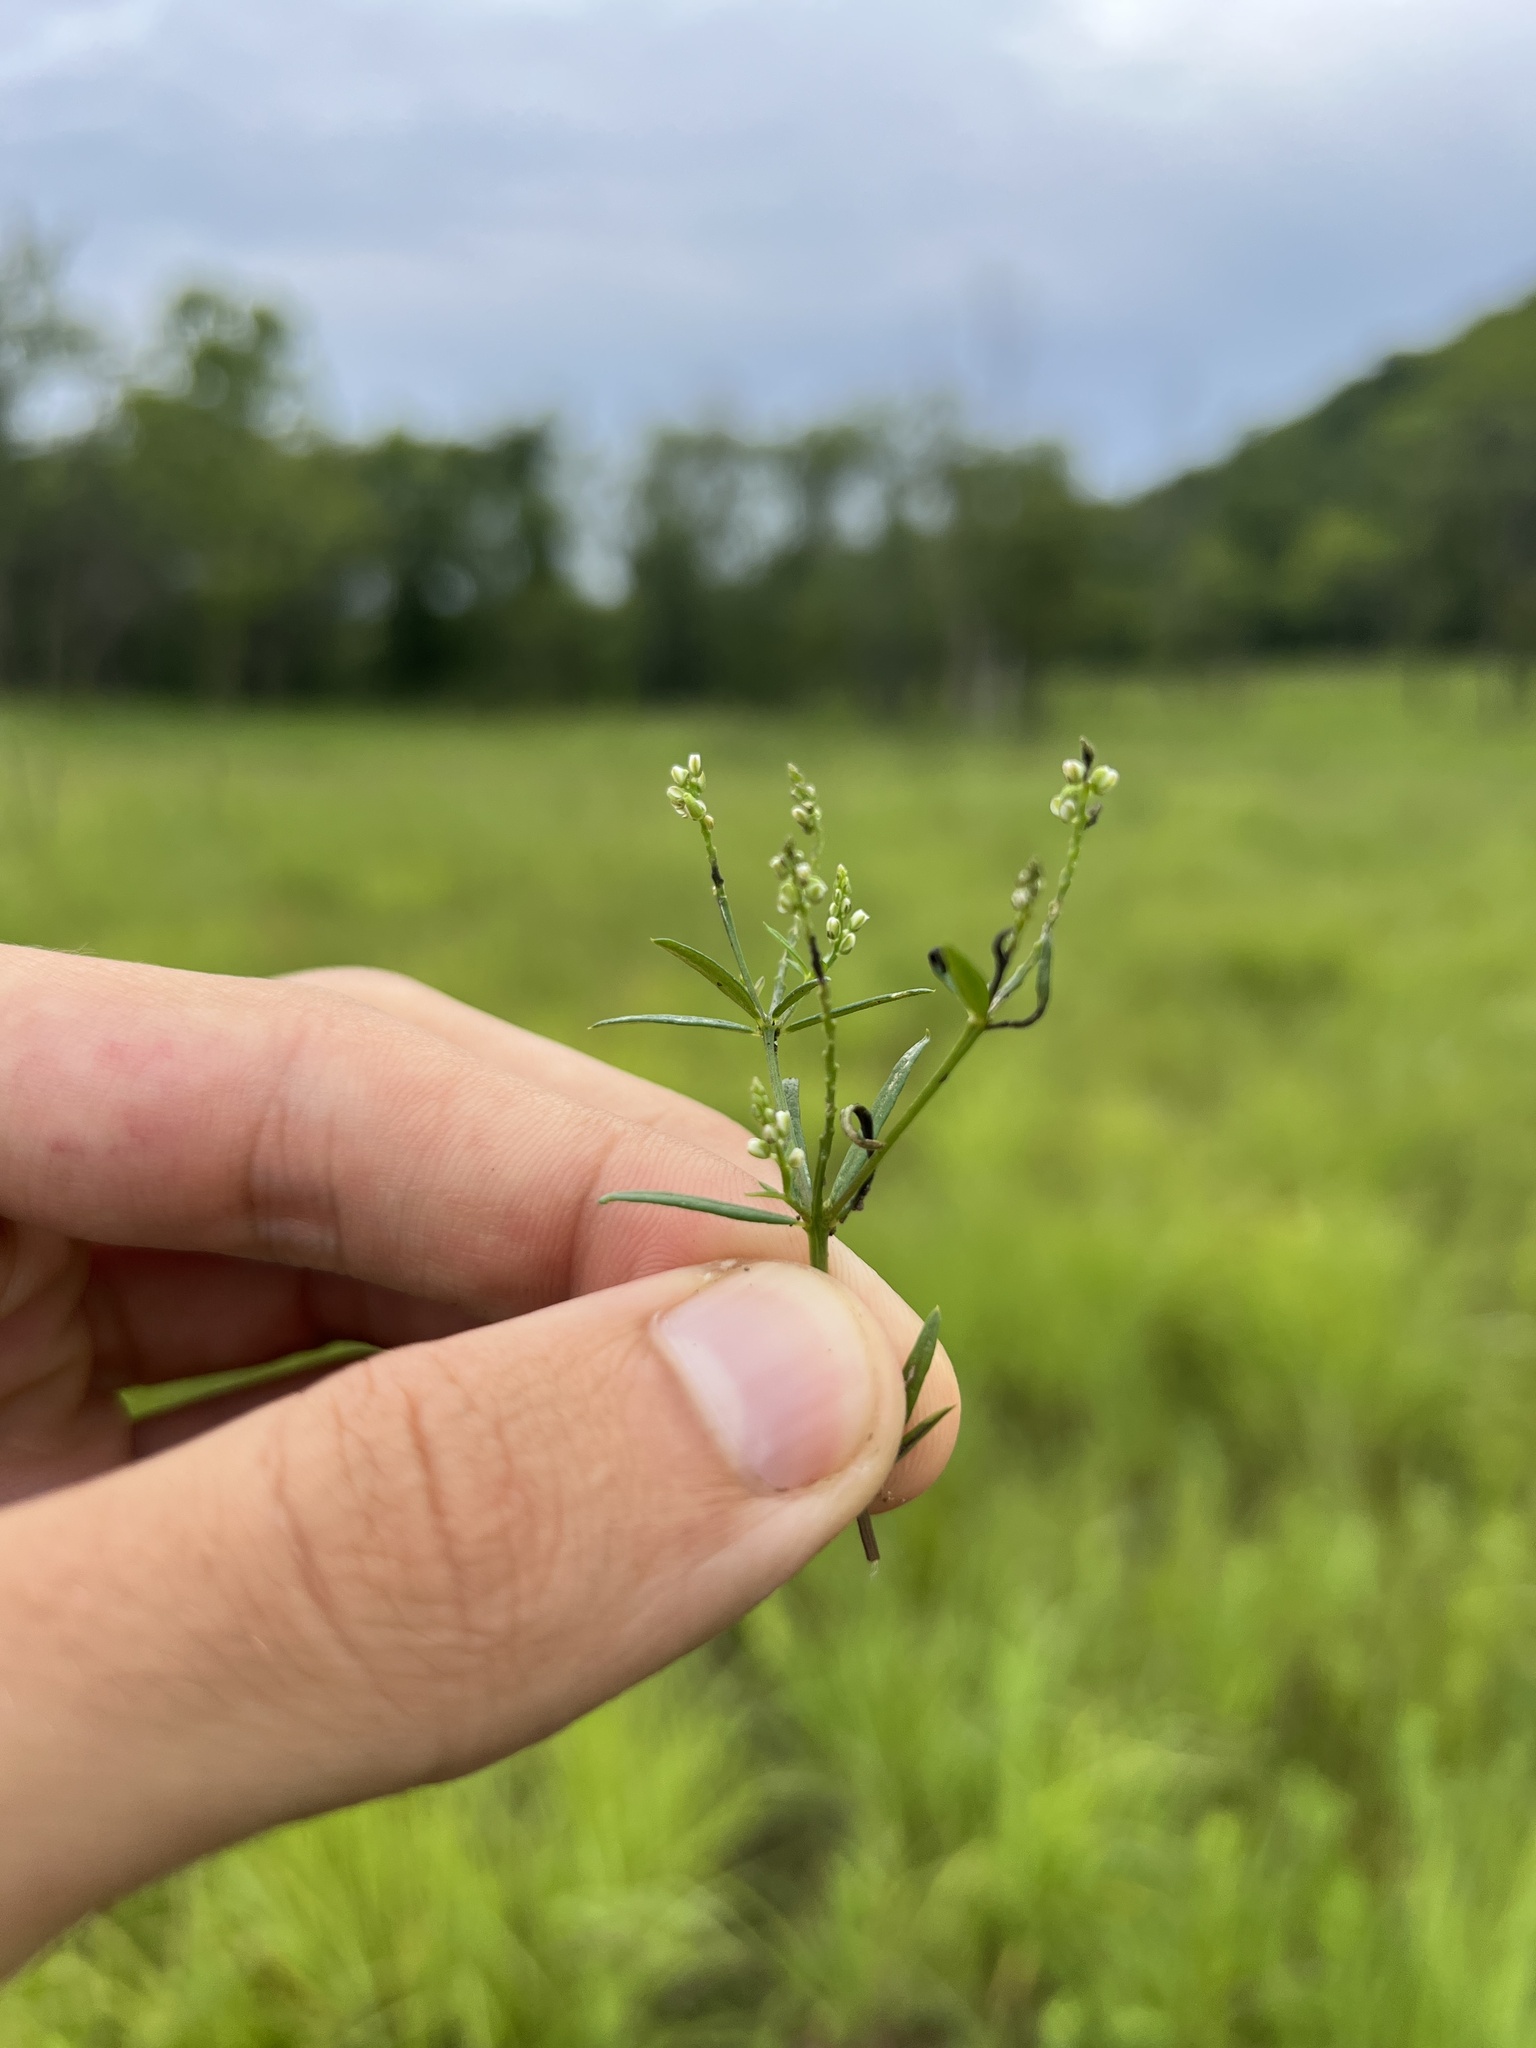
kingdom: Plantae
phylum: Tracheophyta
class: Magnoliopsida
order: Fabales
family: Polygalaceae
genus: Polygala
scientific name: Polygala verticillata
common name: Whorl milkwort
